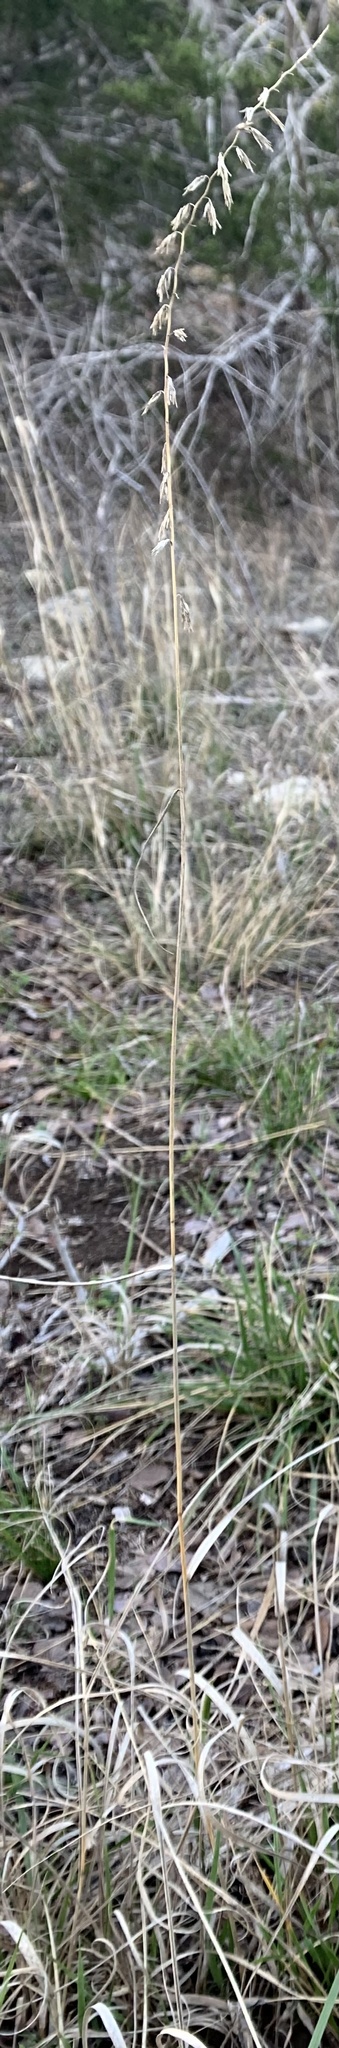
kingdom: Plantae
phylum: Tracheophyta
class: Liliopsida
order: Poales
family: Poaceae
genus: Bouteloua
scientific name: Bouteloua curtipendula
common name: Side-oats grama
